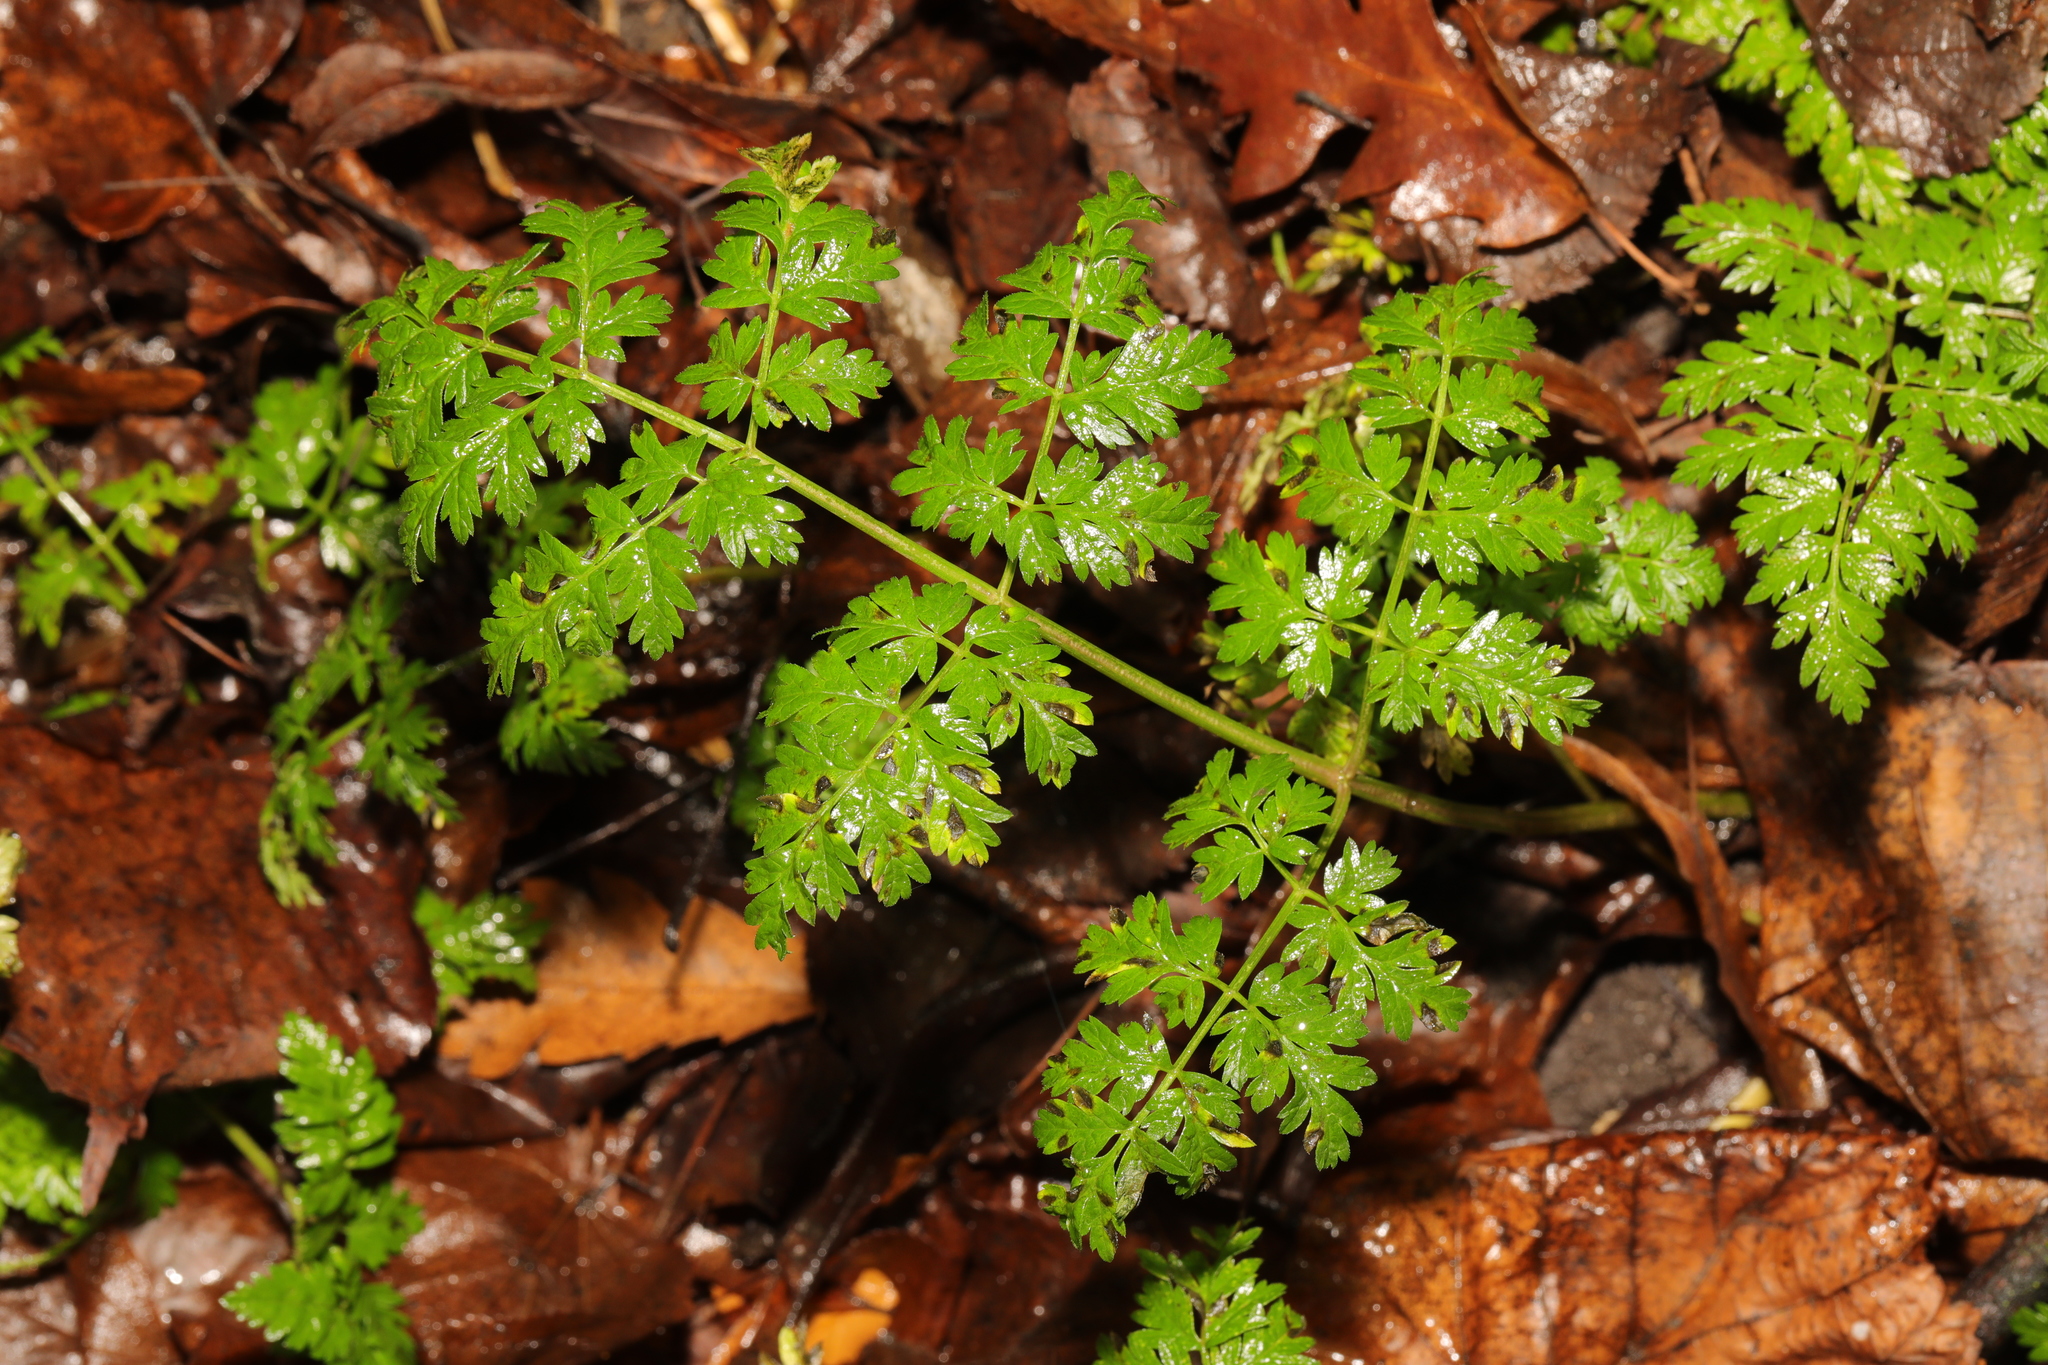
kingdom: Plantae
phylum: Tracheophyta
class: Magnoliopsida
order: Apiales
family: Apiaceae
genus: Anthriscus
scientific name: Anthriscus sylvestris
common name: Cow parsley
